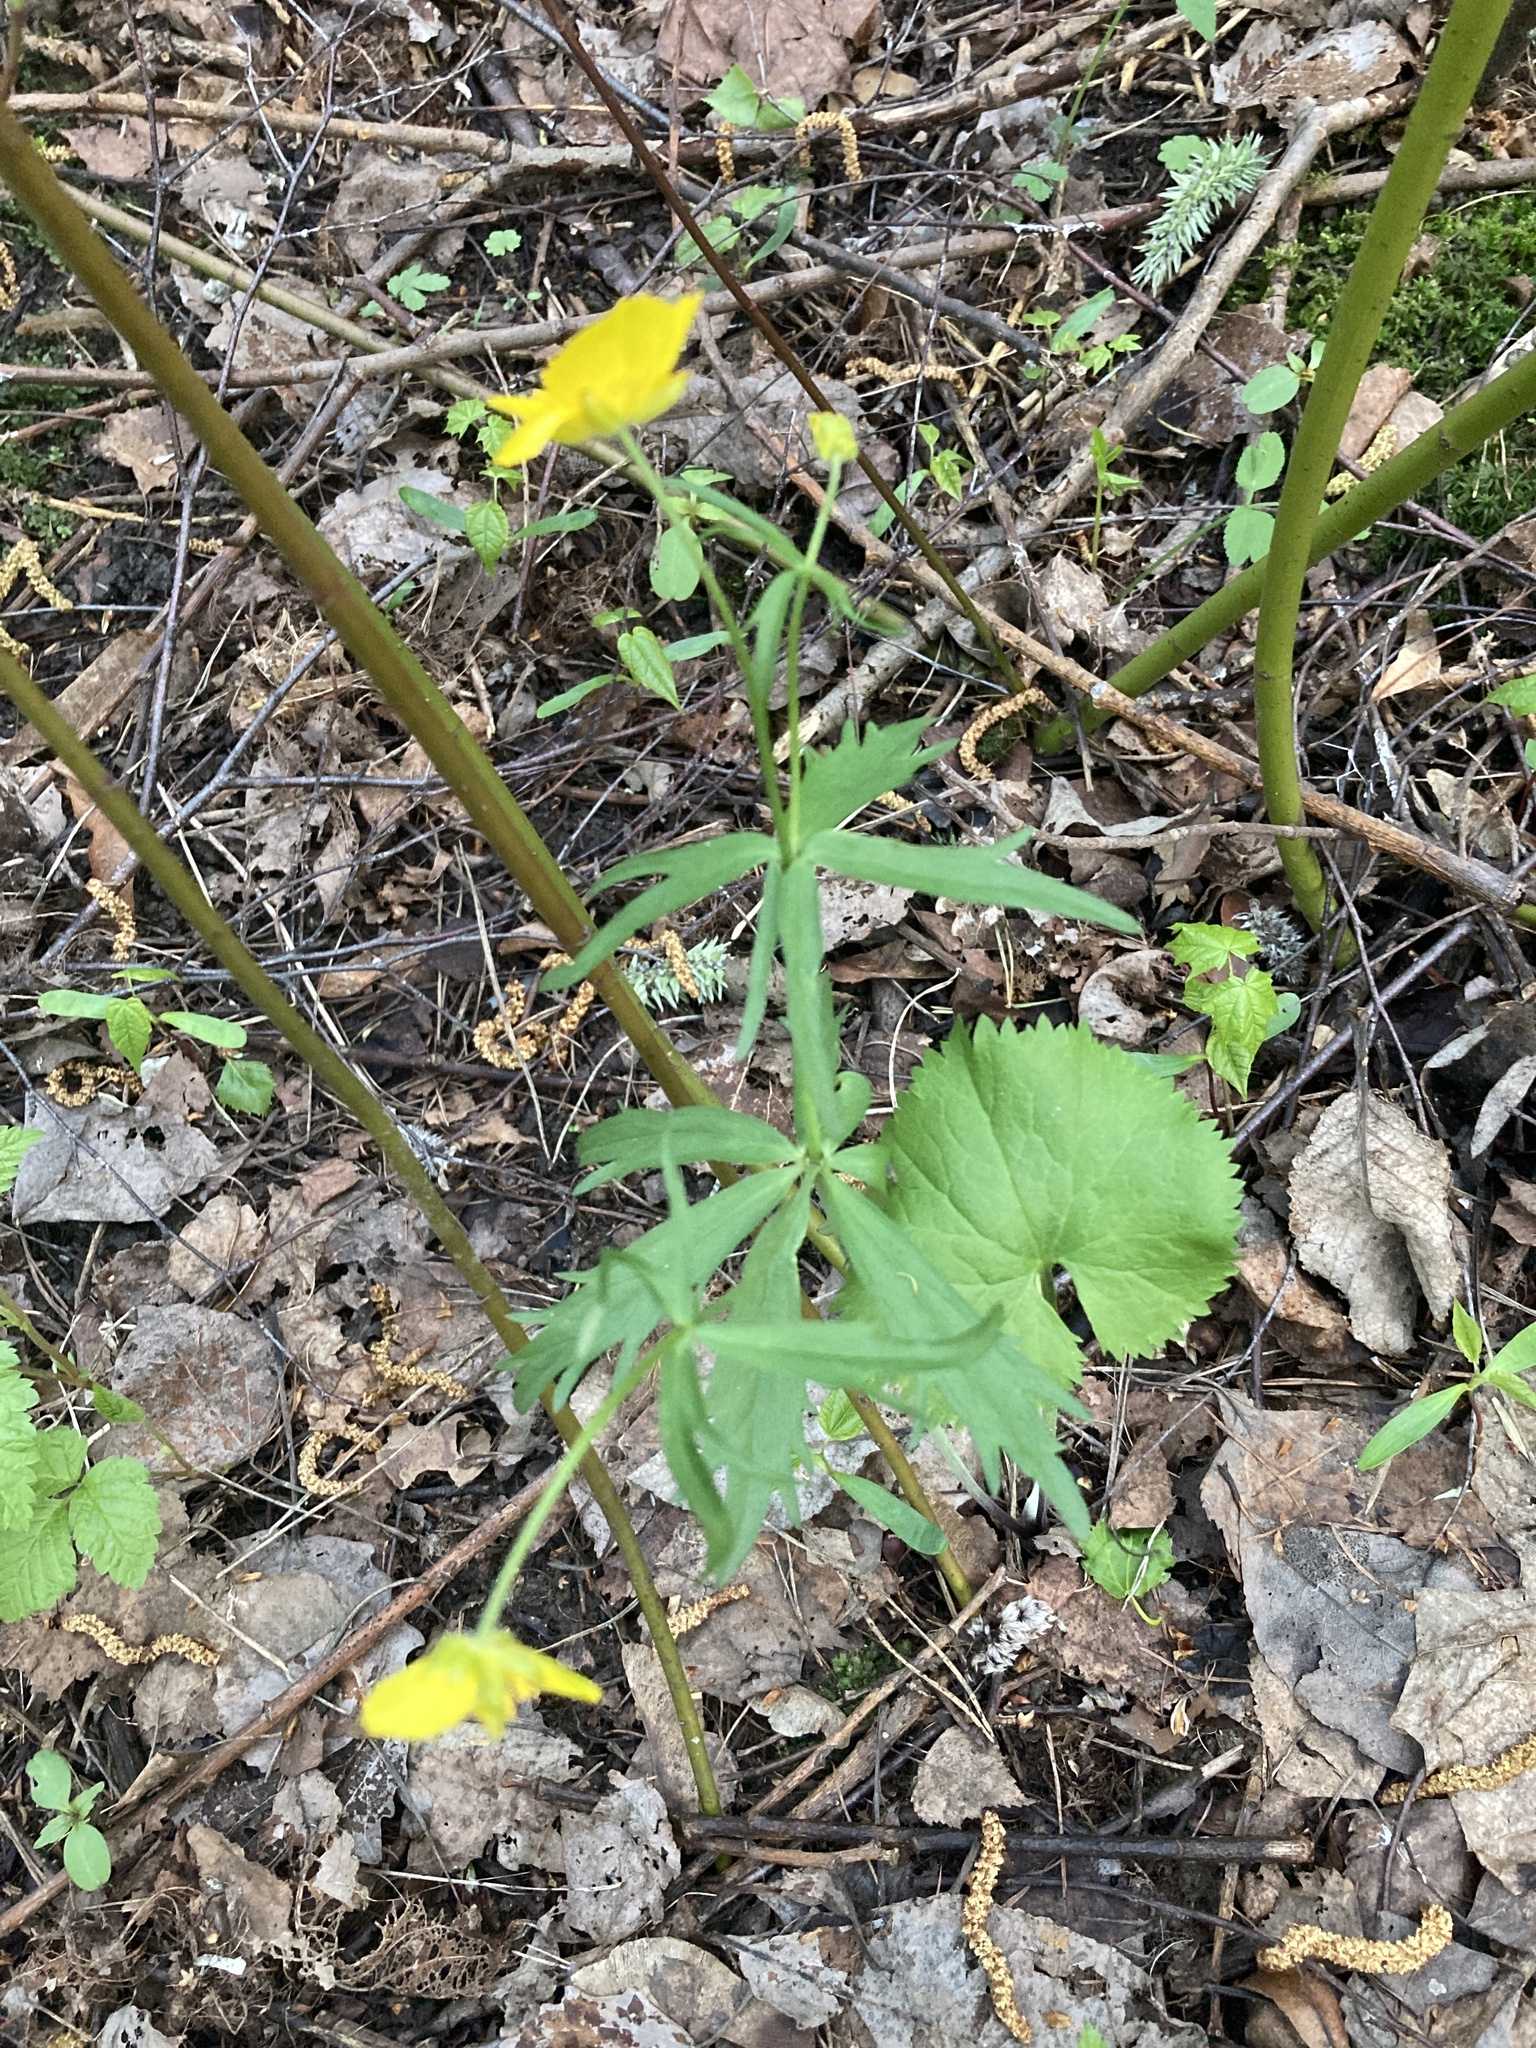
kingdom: Plantae
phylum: Tracheophyta
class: Magnoliopsida
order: Ranunculales
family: Ranunculaceae
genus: Ranunculus
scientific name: Ranunculus cassubicus
